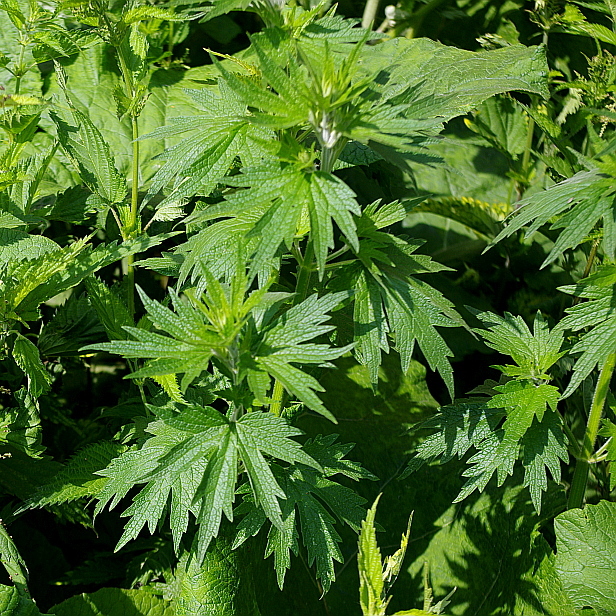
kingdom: Plantae
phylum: Tracheophyta
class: Magnoliopsida
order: Lamiales
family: Lamiaceae
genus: Leonurus
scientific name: Leonurus quinquelobatus
